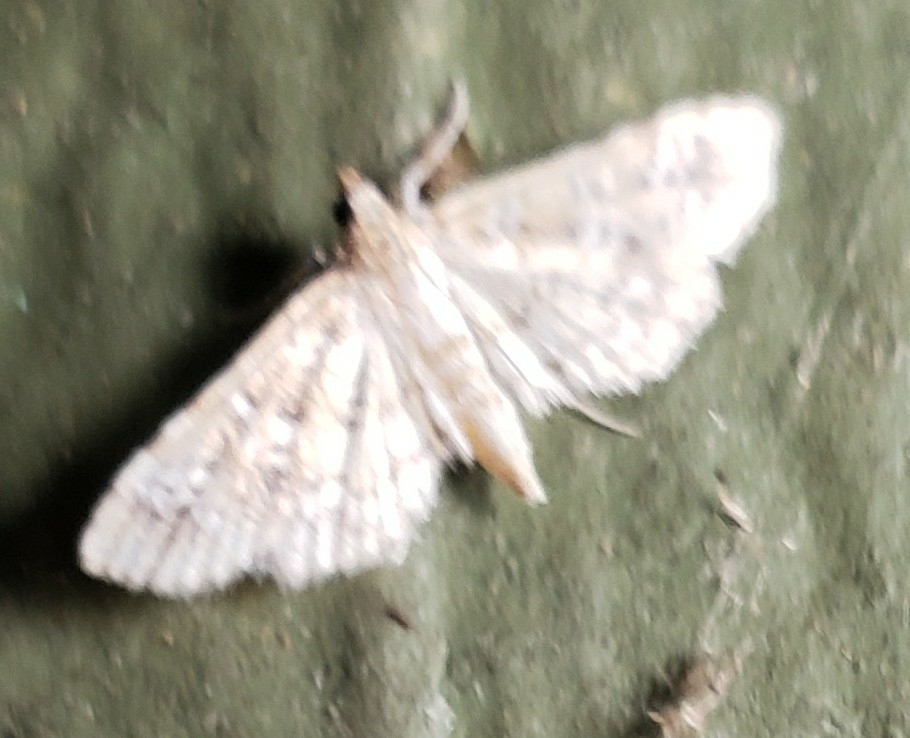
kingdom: Animalia
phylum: Arthropoda
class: Insecta
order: Lepidoptera
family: Crambidae
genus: Samea
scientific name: Samea multiplicalis
